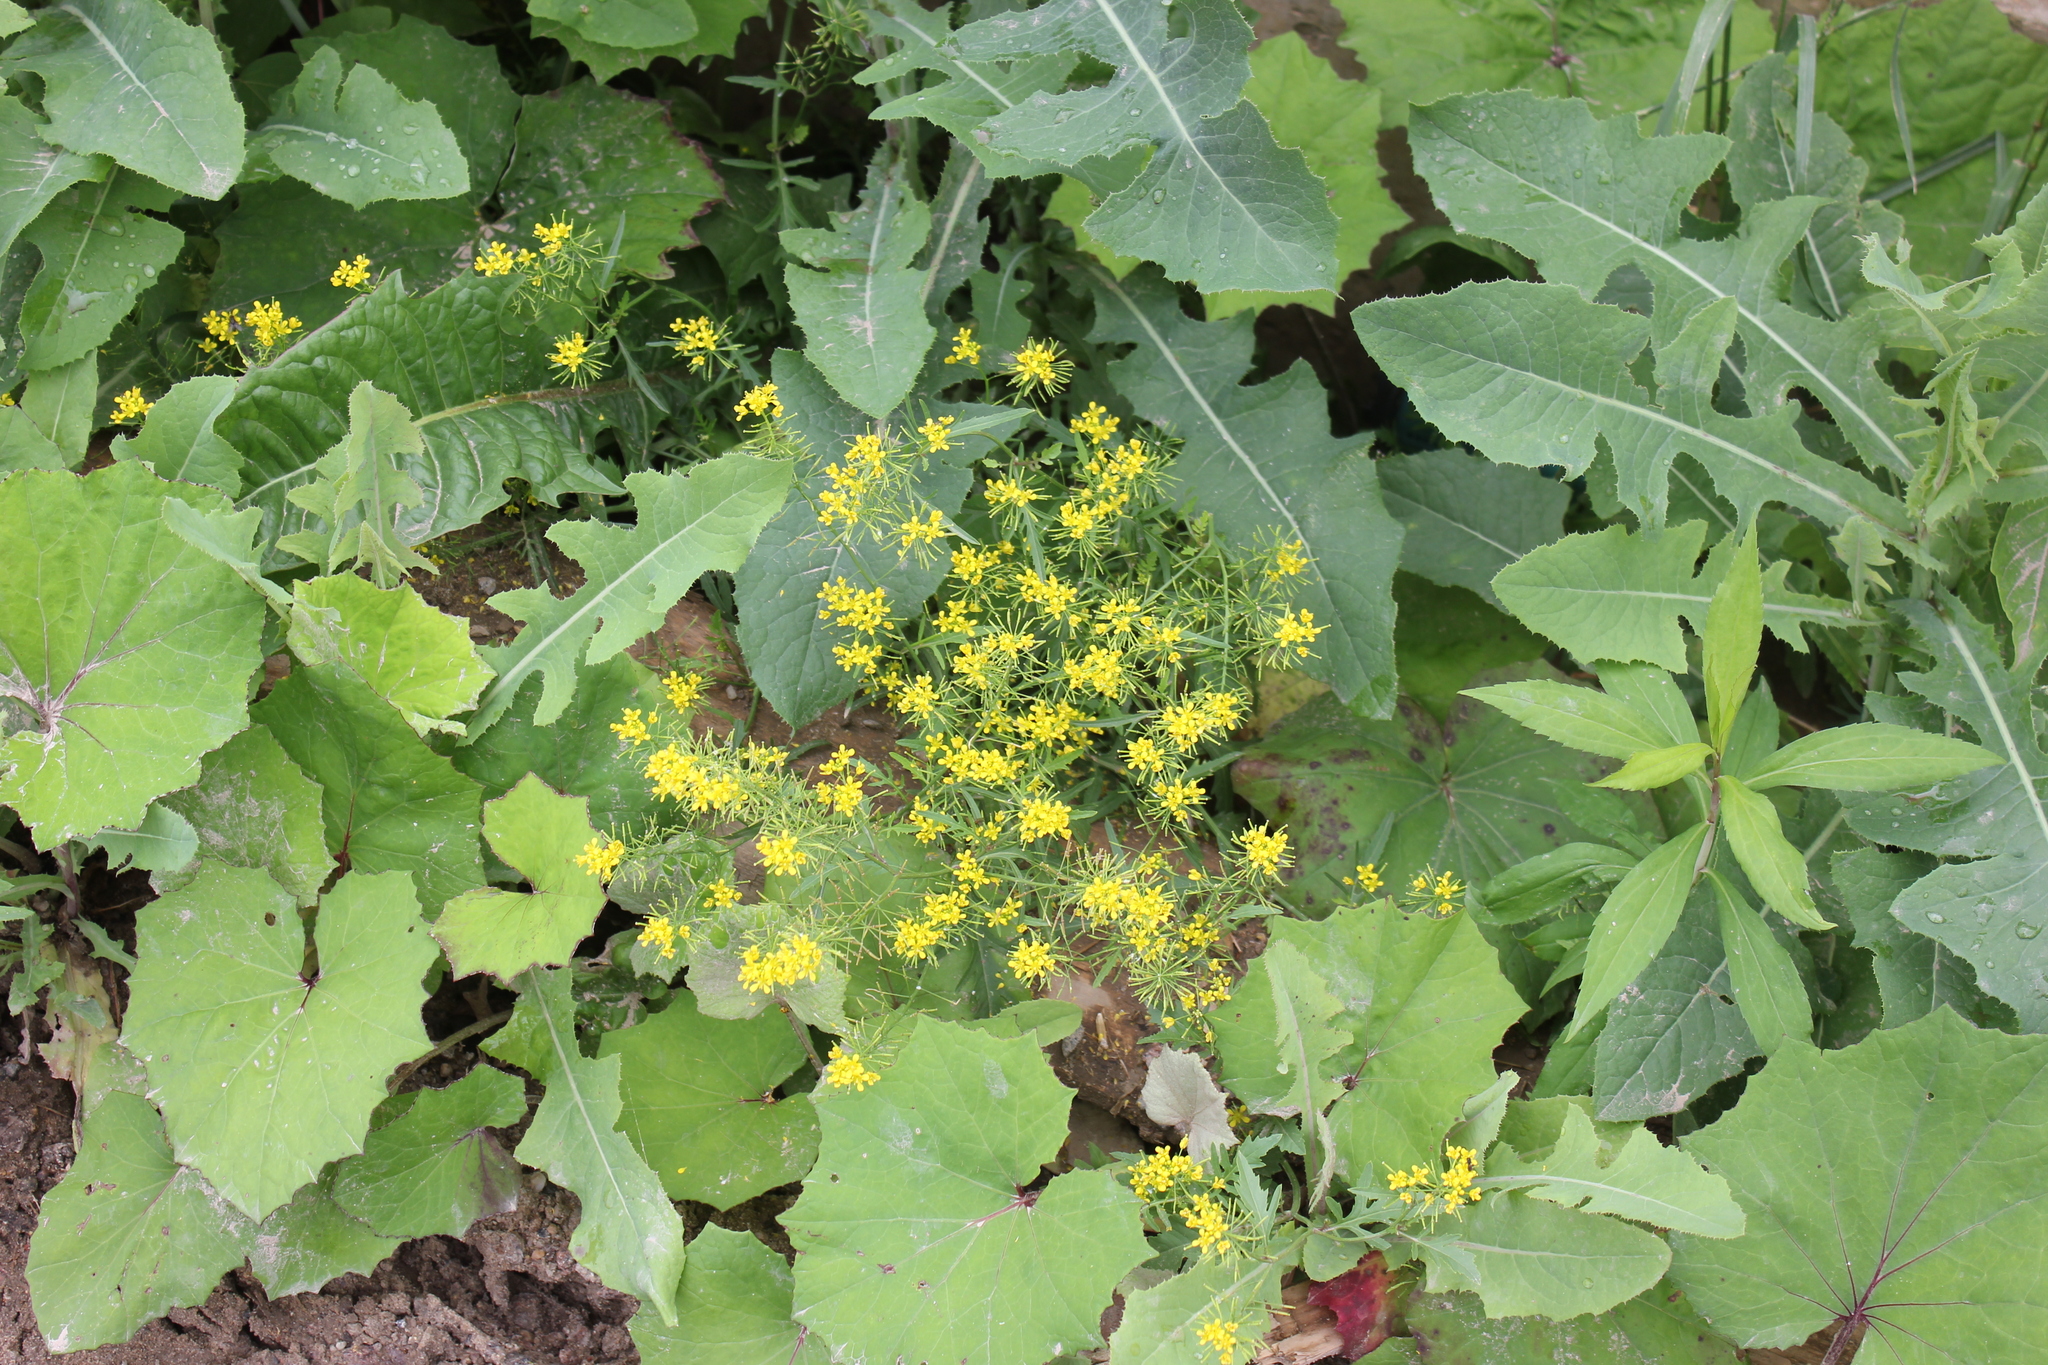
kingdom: Plantae
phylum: Tracheophyta
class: Magnoliopsida
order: Brassicales
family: Brassicaceae
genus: Rorippa
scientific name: Rorippa sylvestris
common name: Creeping yellowcress
